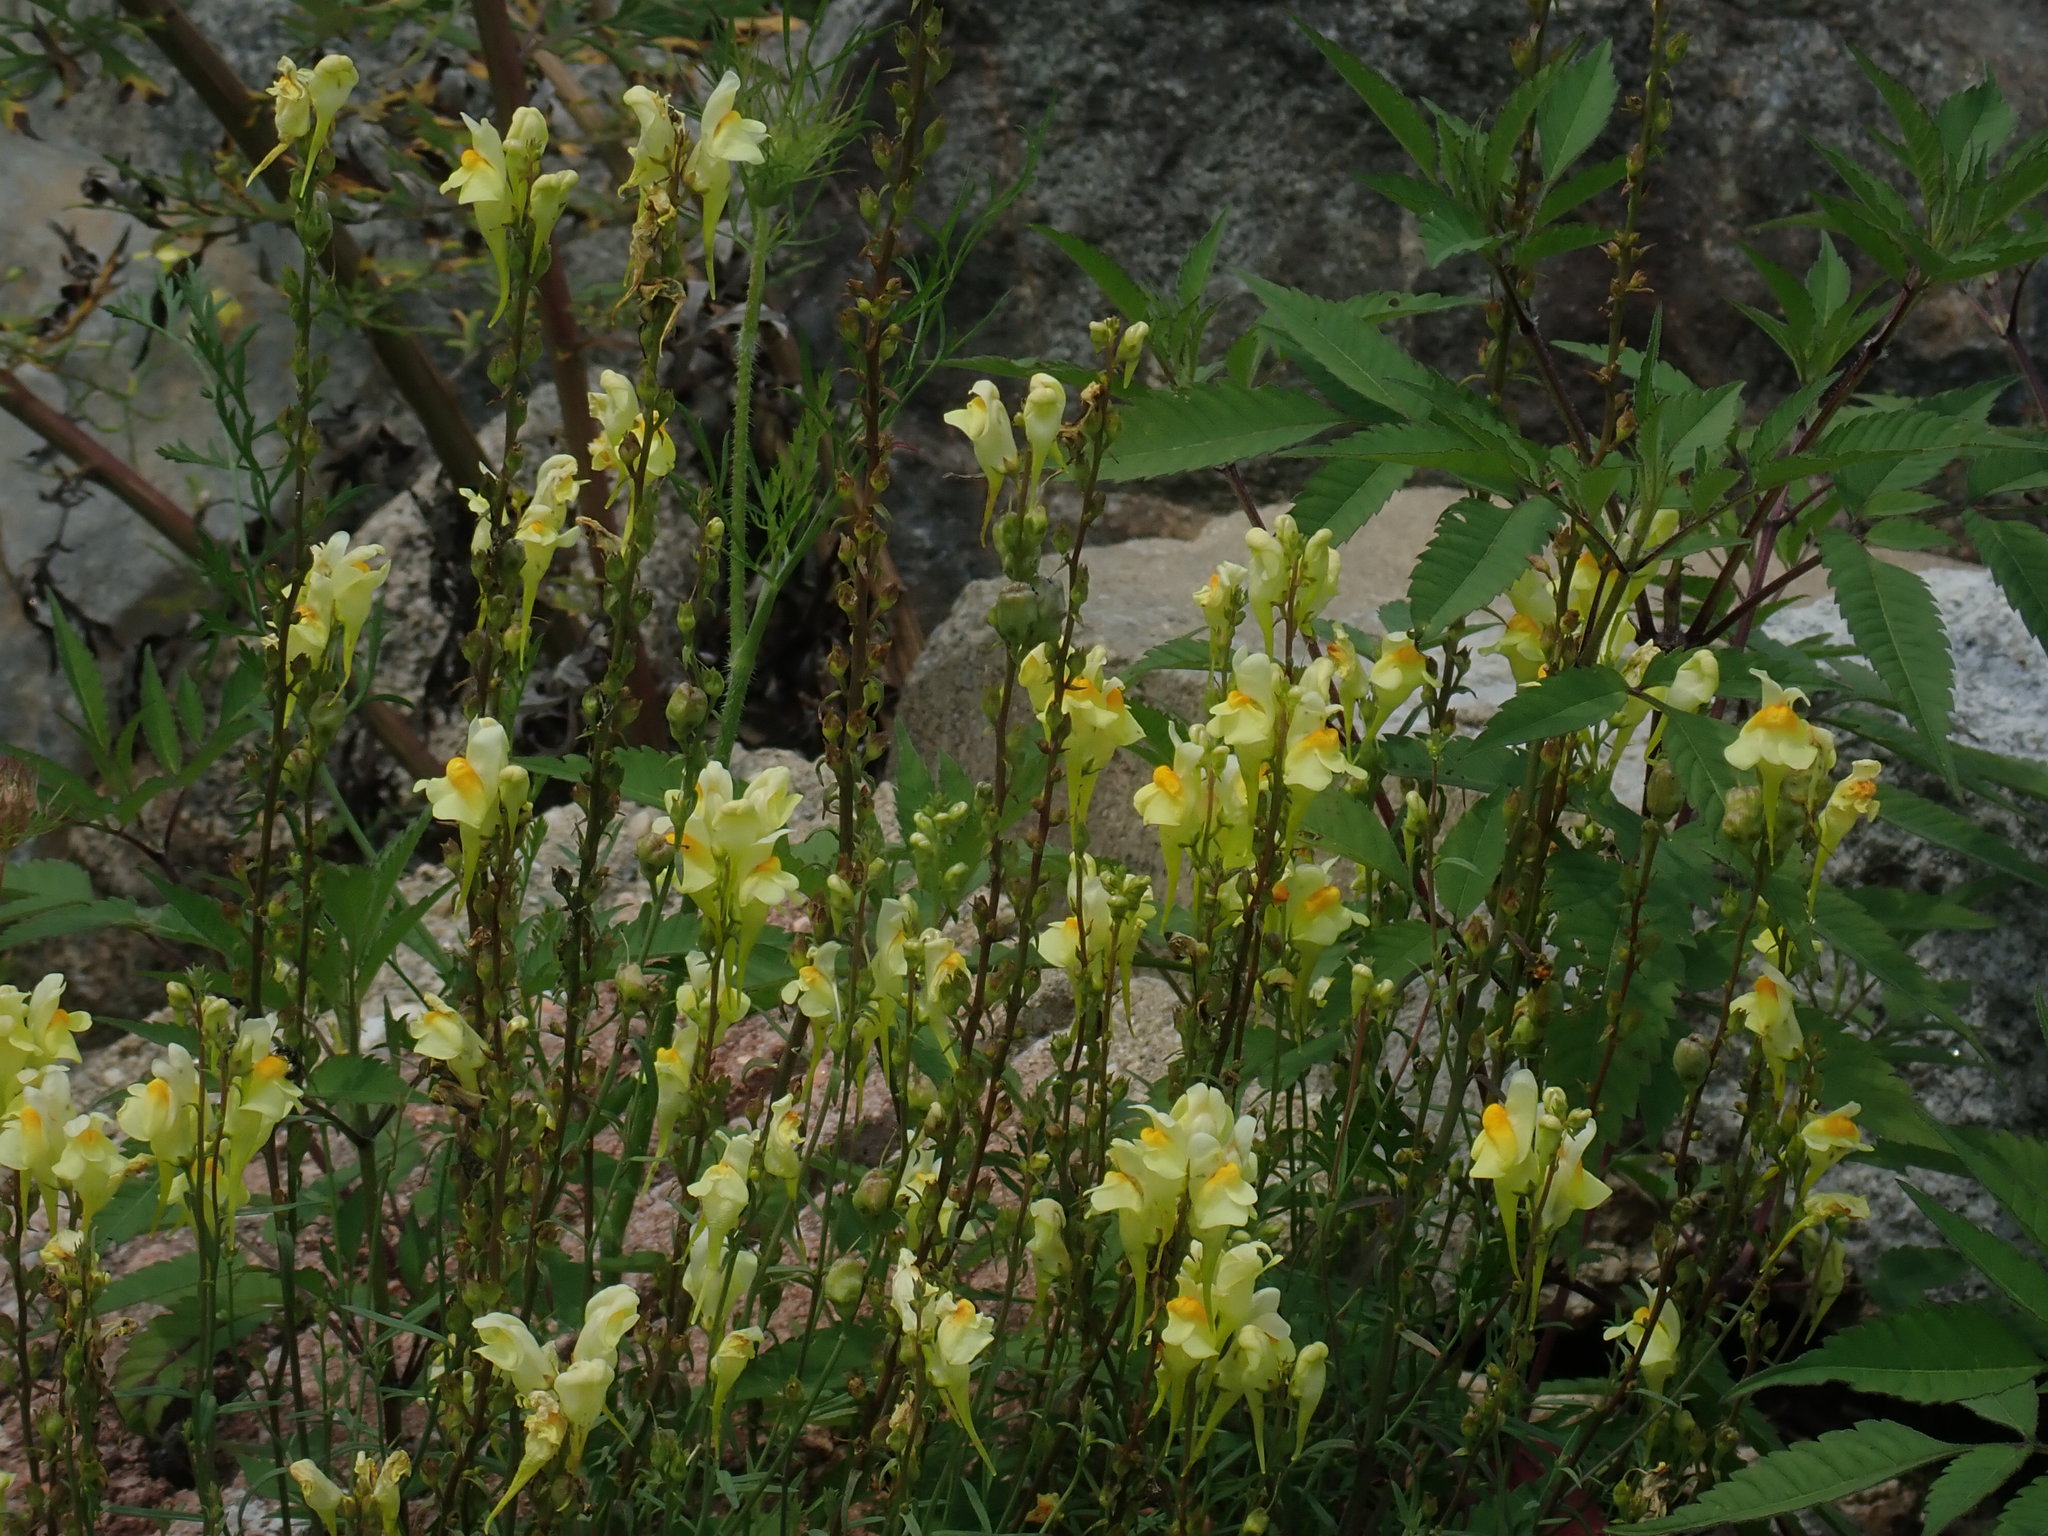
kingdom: Plantae
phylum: Tracheophyta
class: Magnoliopsida
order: Lamiales
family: Plantaginaceae
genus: Linaria
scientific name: Linaria vulgaris
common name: Butter and eggs
